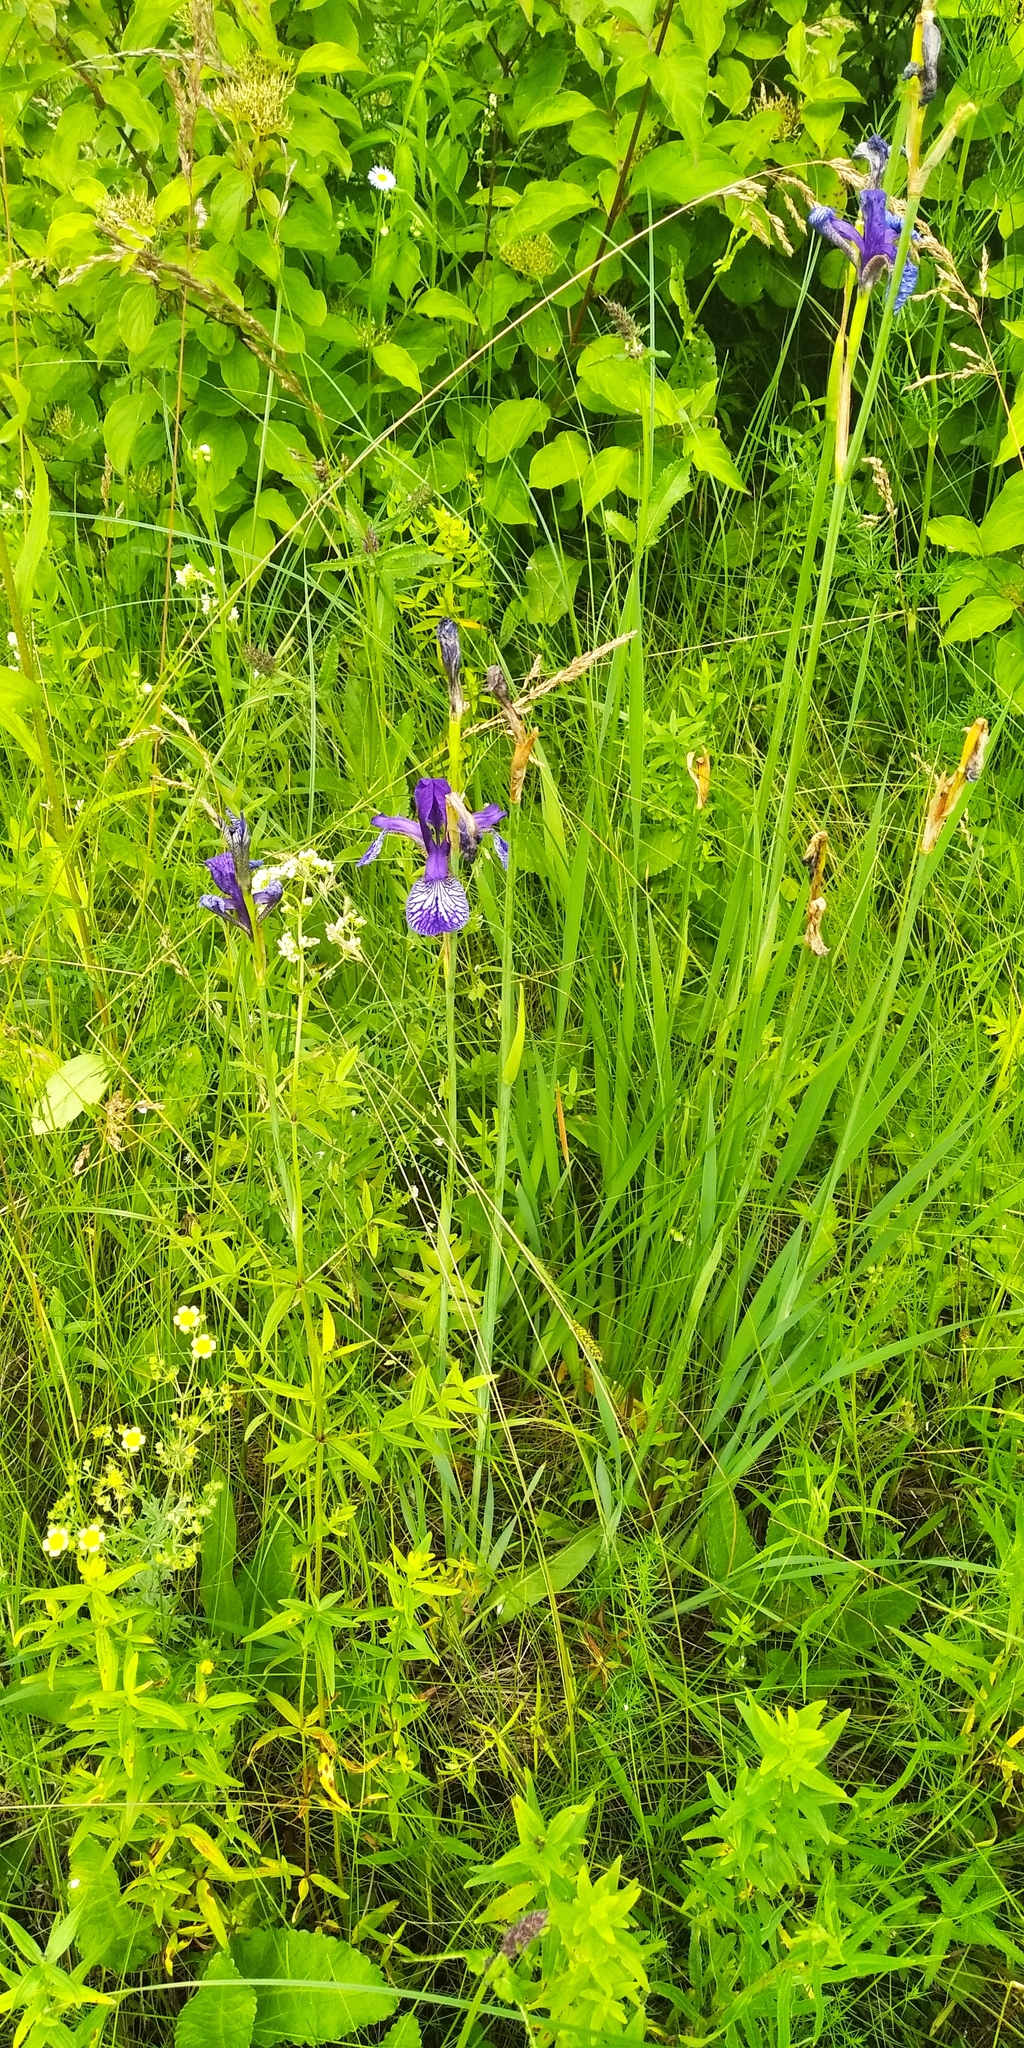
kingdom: Plantae
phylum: Tracheophyta
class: Liliopsida
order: Asparagales
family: Iridaceae
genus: Iris
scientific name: Iris sibirica
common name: Siberian iris
